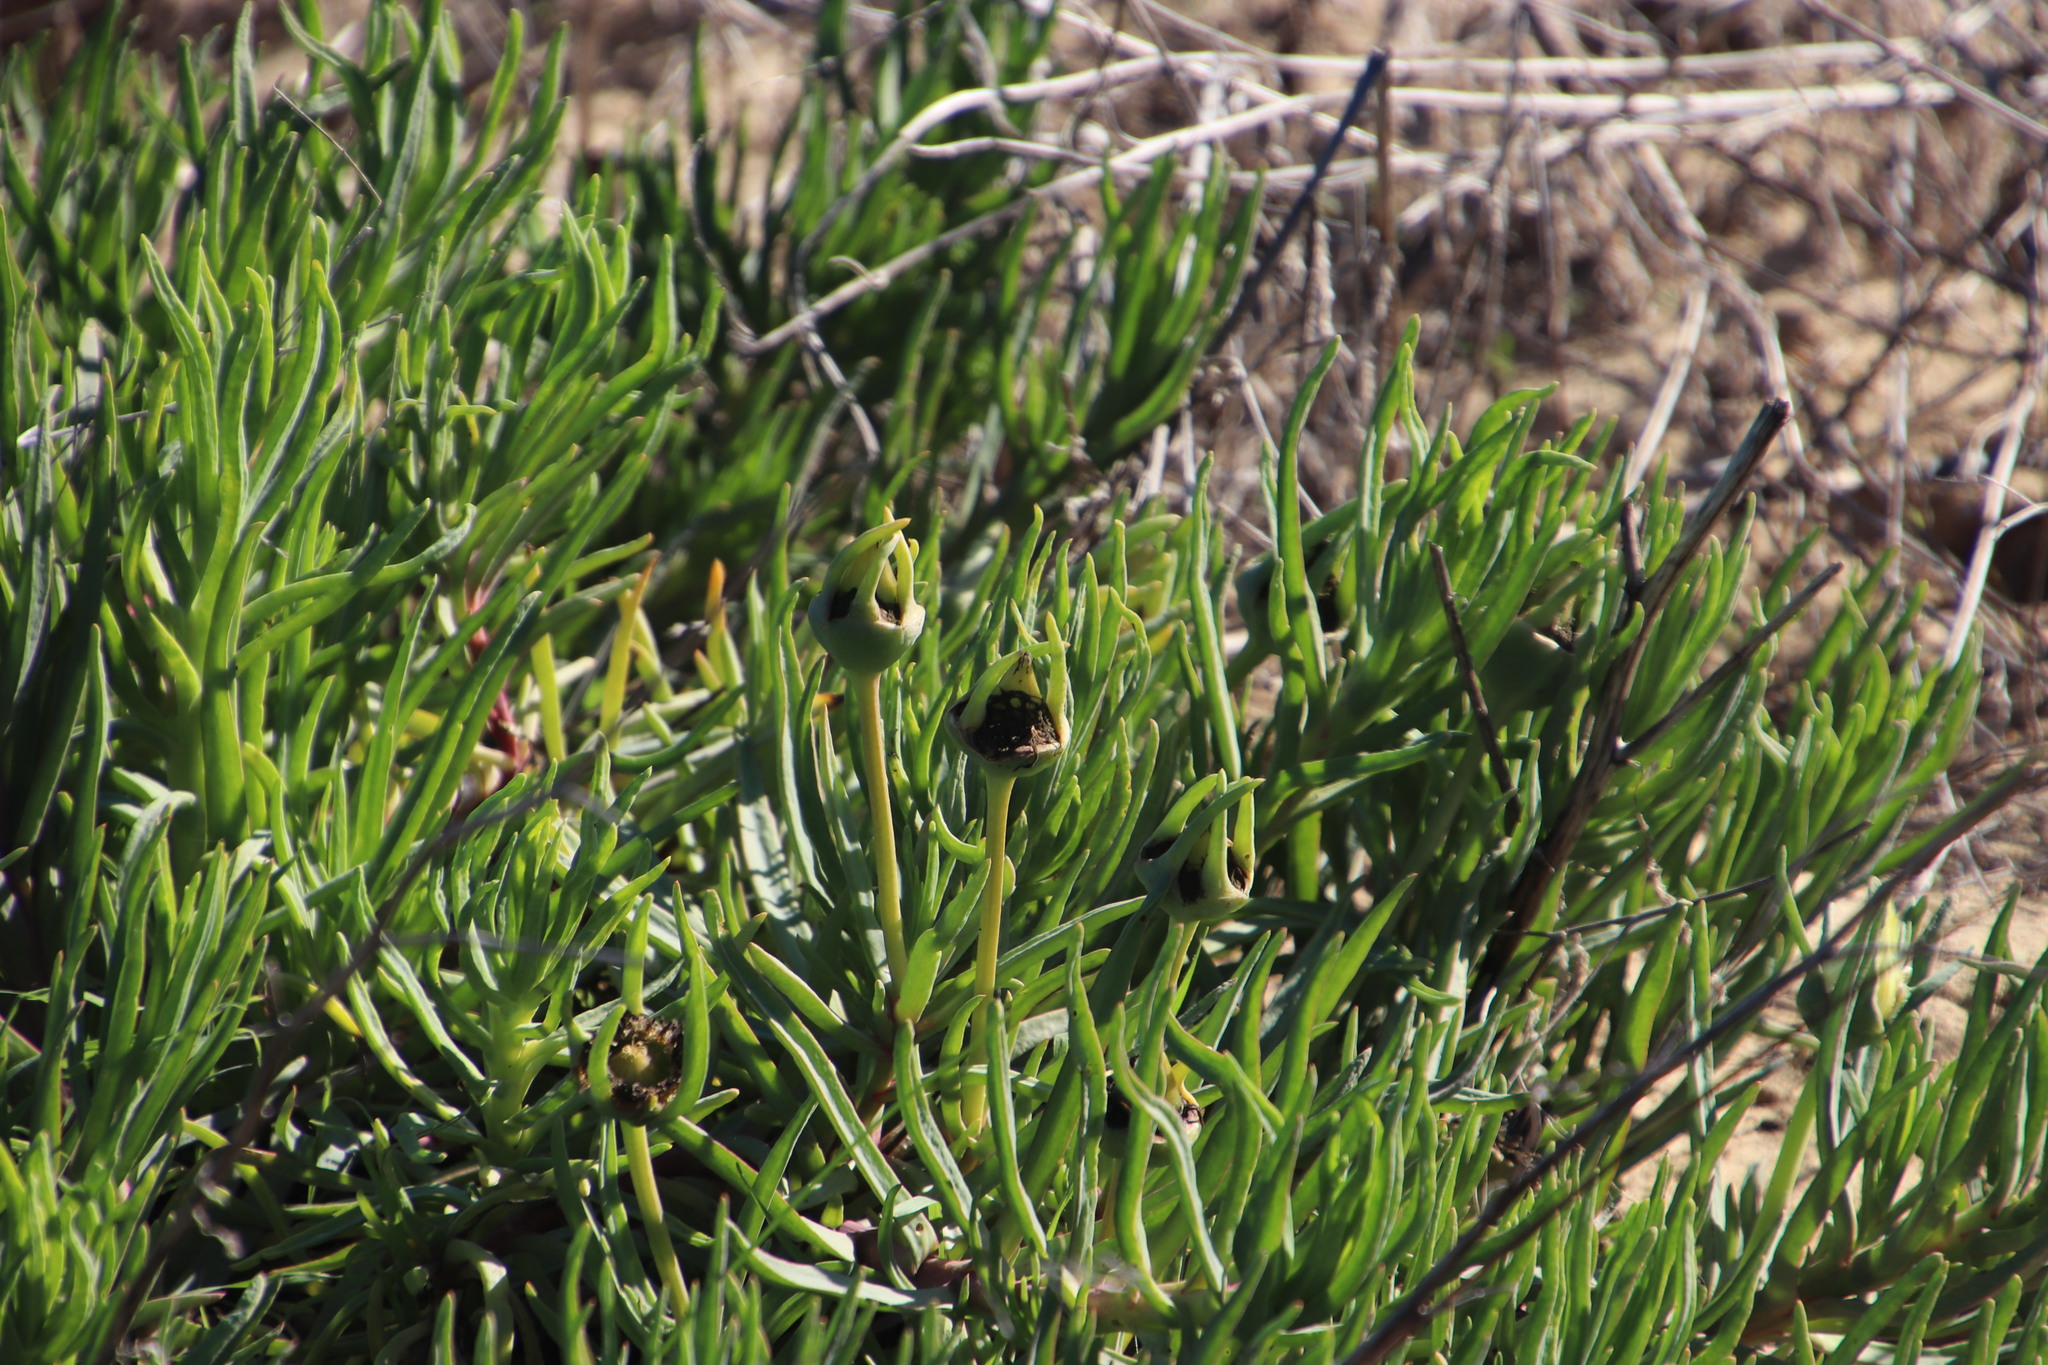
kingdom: Plantae
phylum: Tracheophyta
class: Magnoliopsida
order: Caryophyllales
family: Aizoaceae
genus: Conicosia
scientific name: Conicosia pugioniformis
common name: Narrow-leaved iceplant
